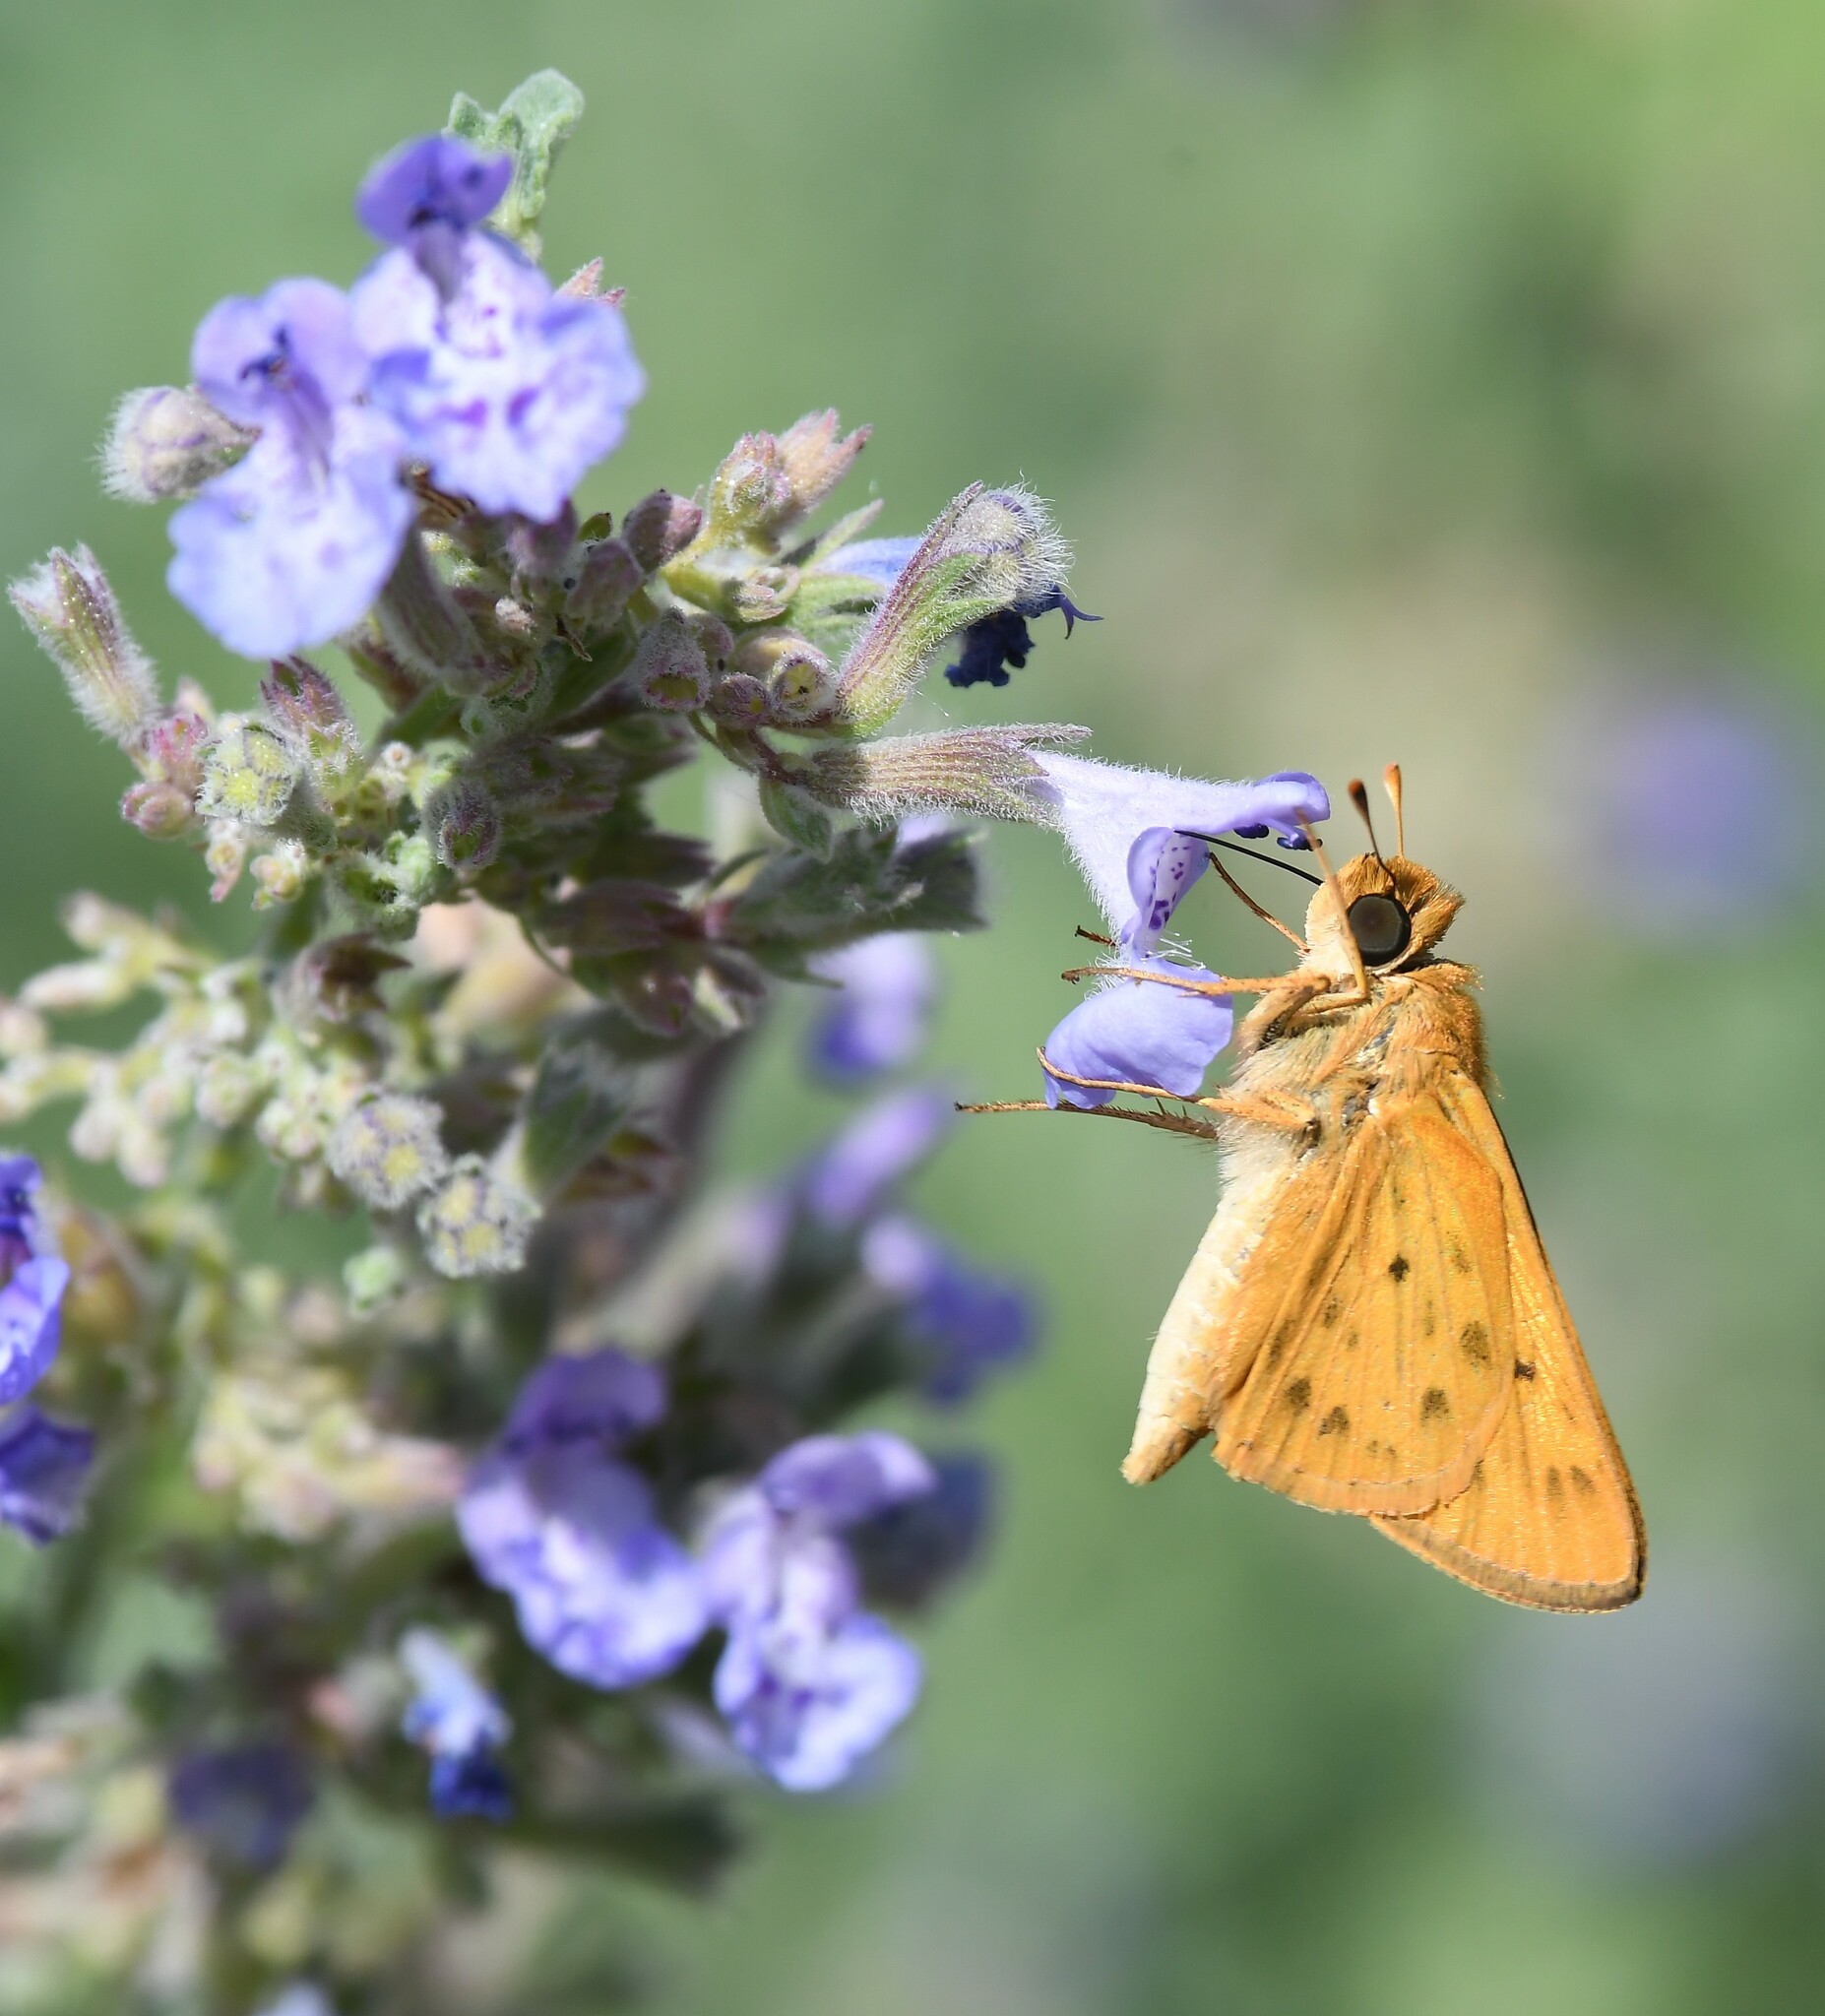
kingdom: Animalia
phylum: Arthropoda
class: Insecta
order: Lepidoptera
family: Hesperiidae
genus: Hylephila
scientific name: Hylephila phyleus
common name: Fiery skipper
